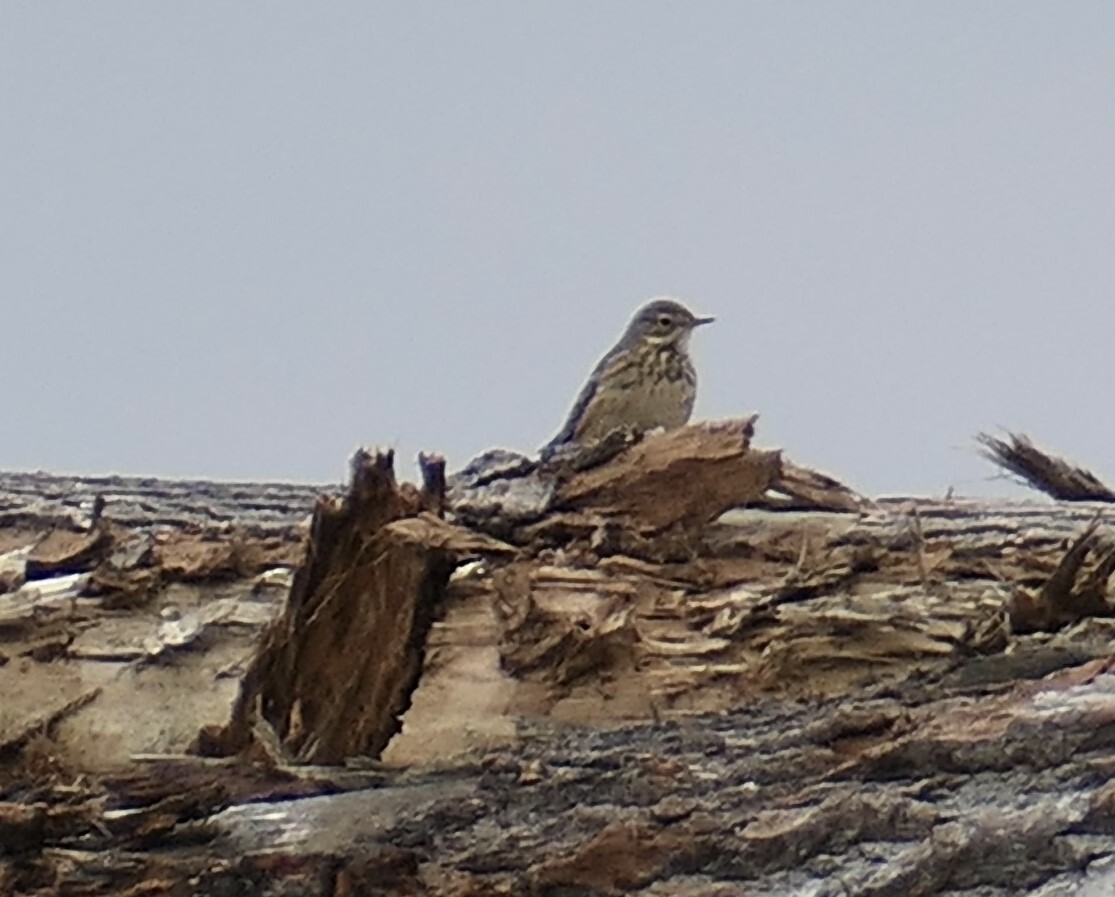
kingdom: Animalia
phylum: Chordata
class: Aves
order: Passeriformes
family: Motacillidae
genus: Anthus
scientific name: Anthus rubescens
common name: Buff-bellied pipit
